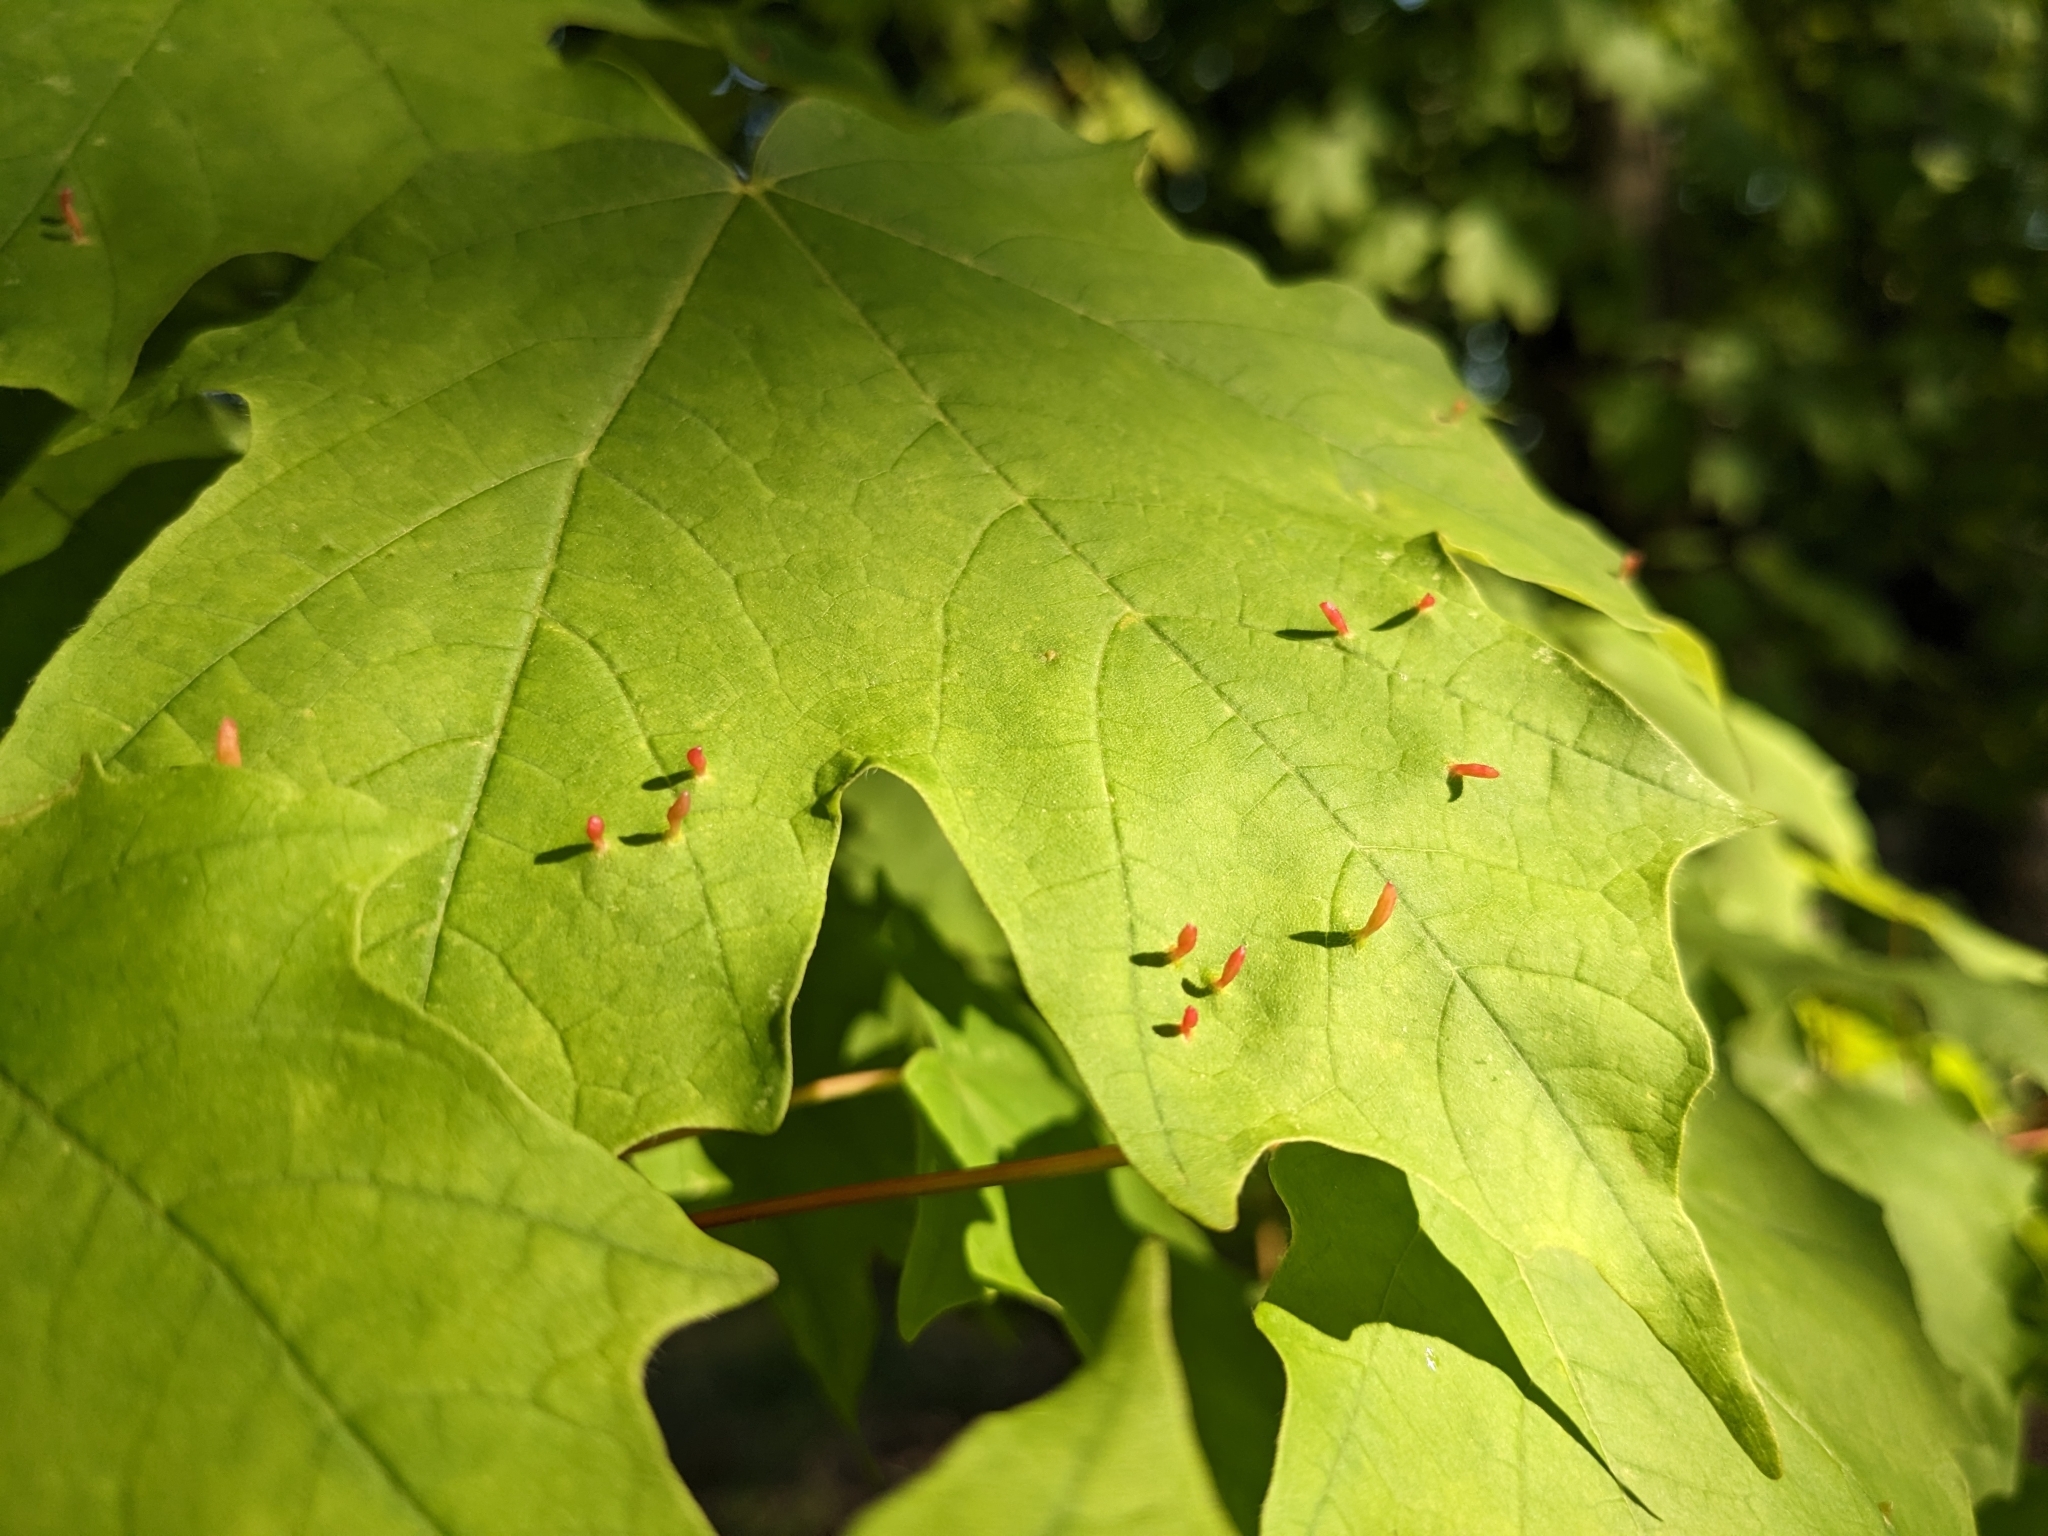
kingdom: Animalia
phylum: Arthropoda
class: Arachnida
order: Trombidiformes
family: Eriophyidae
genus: Vasates
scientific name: Vasates aceriscrumena
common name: Maple spindle gall mite
